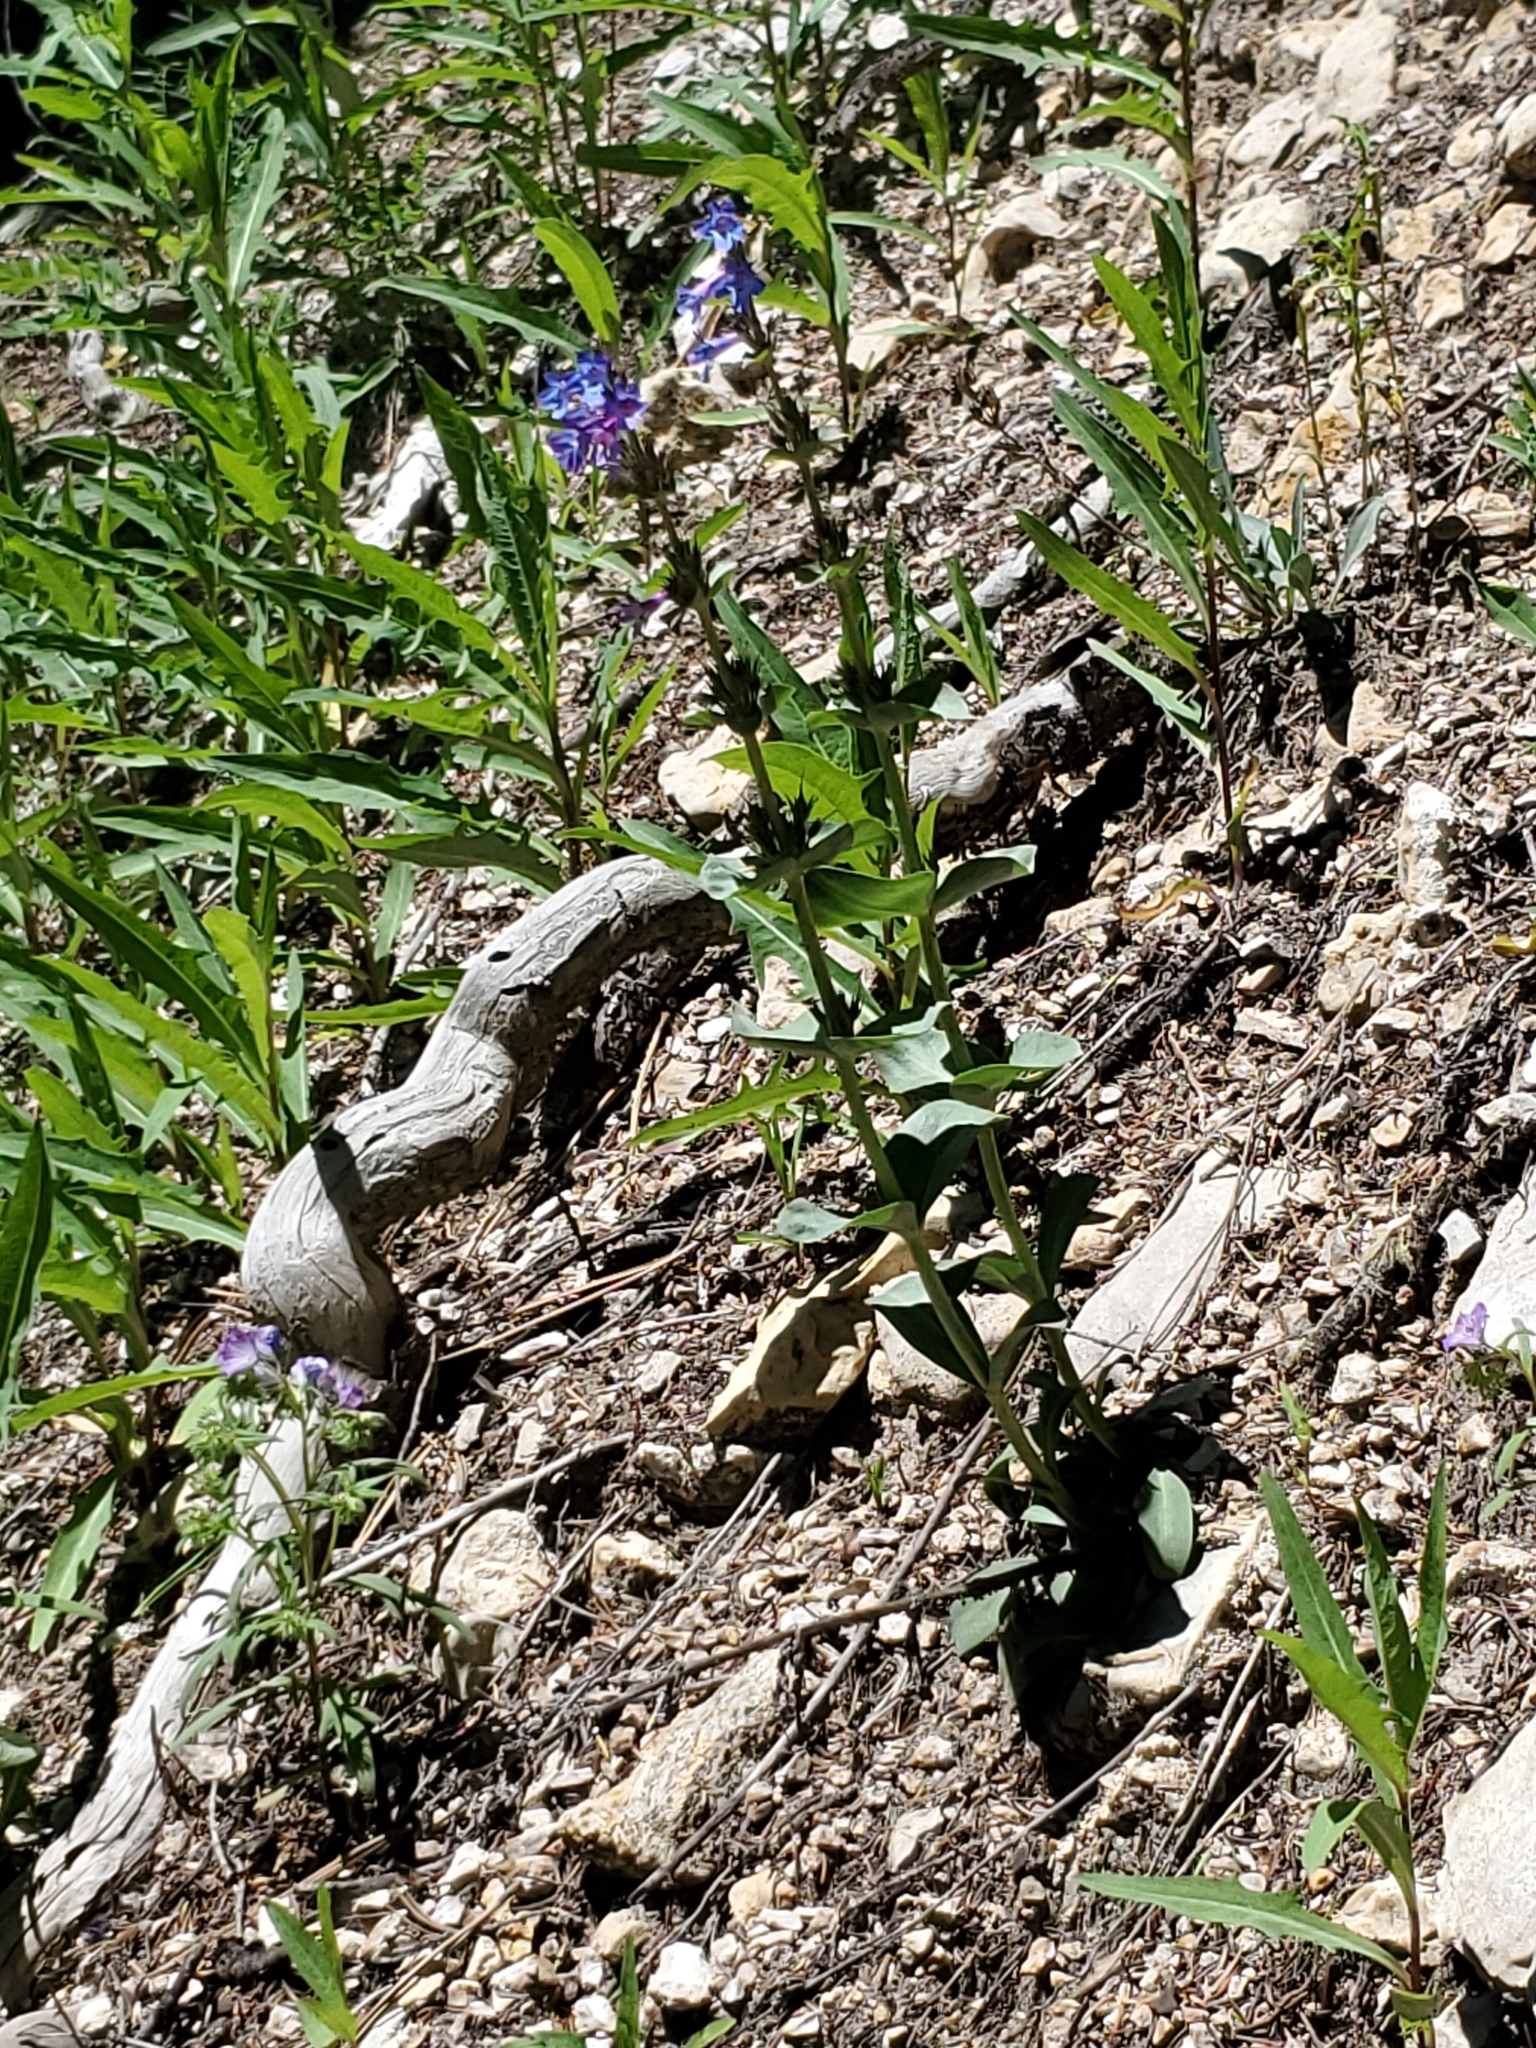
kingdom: Plantae
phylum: Tracheophyta
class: Magnoliopsida
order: Lamiales
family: Plantaginaceae
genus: Penstemon
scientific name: Penstemon nitidus
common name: Shining penstemon
